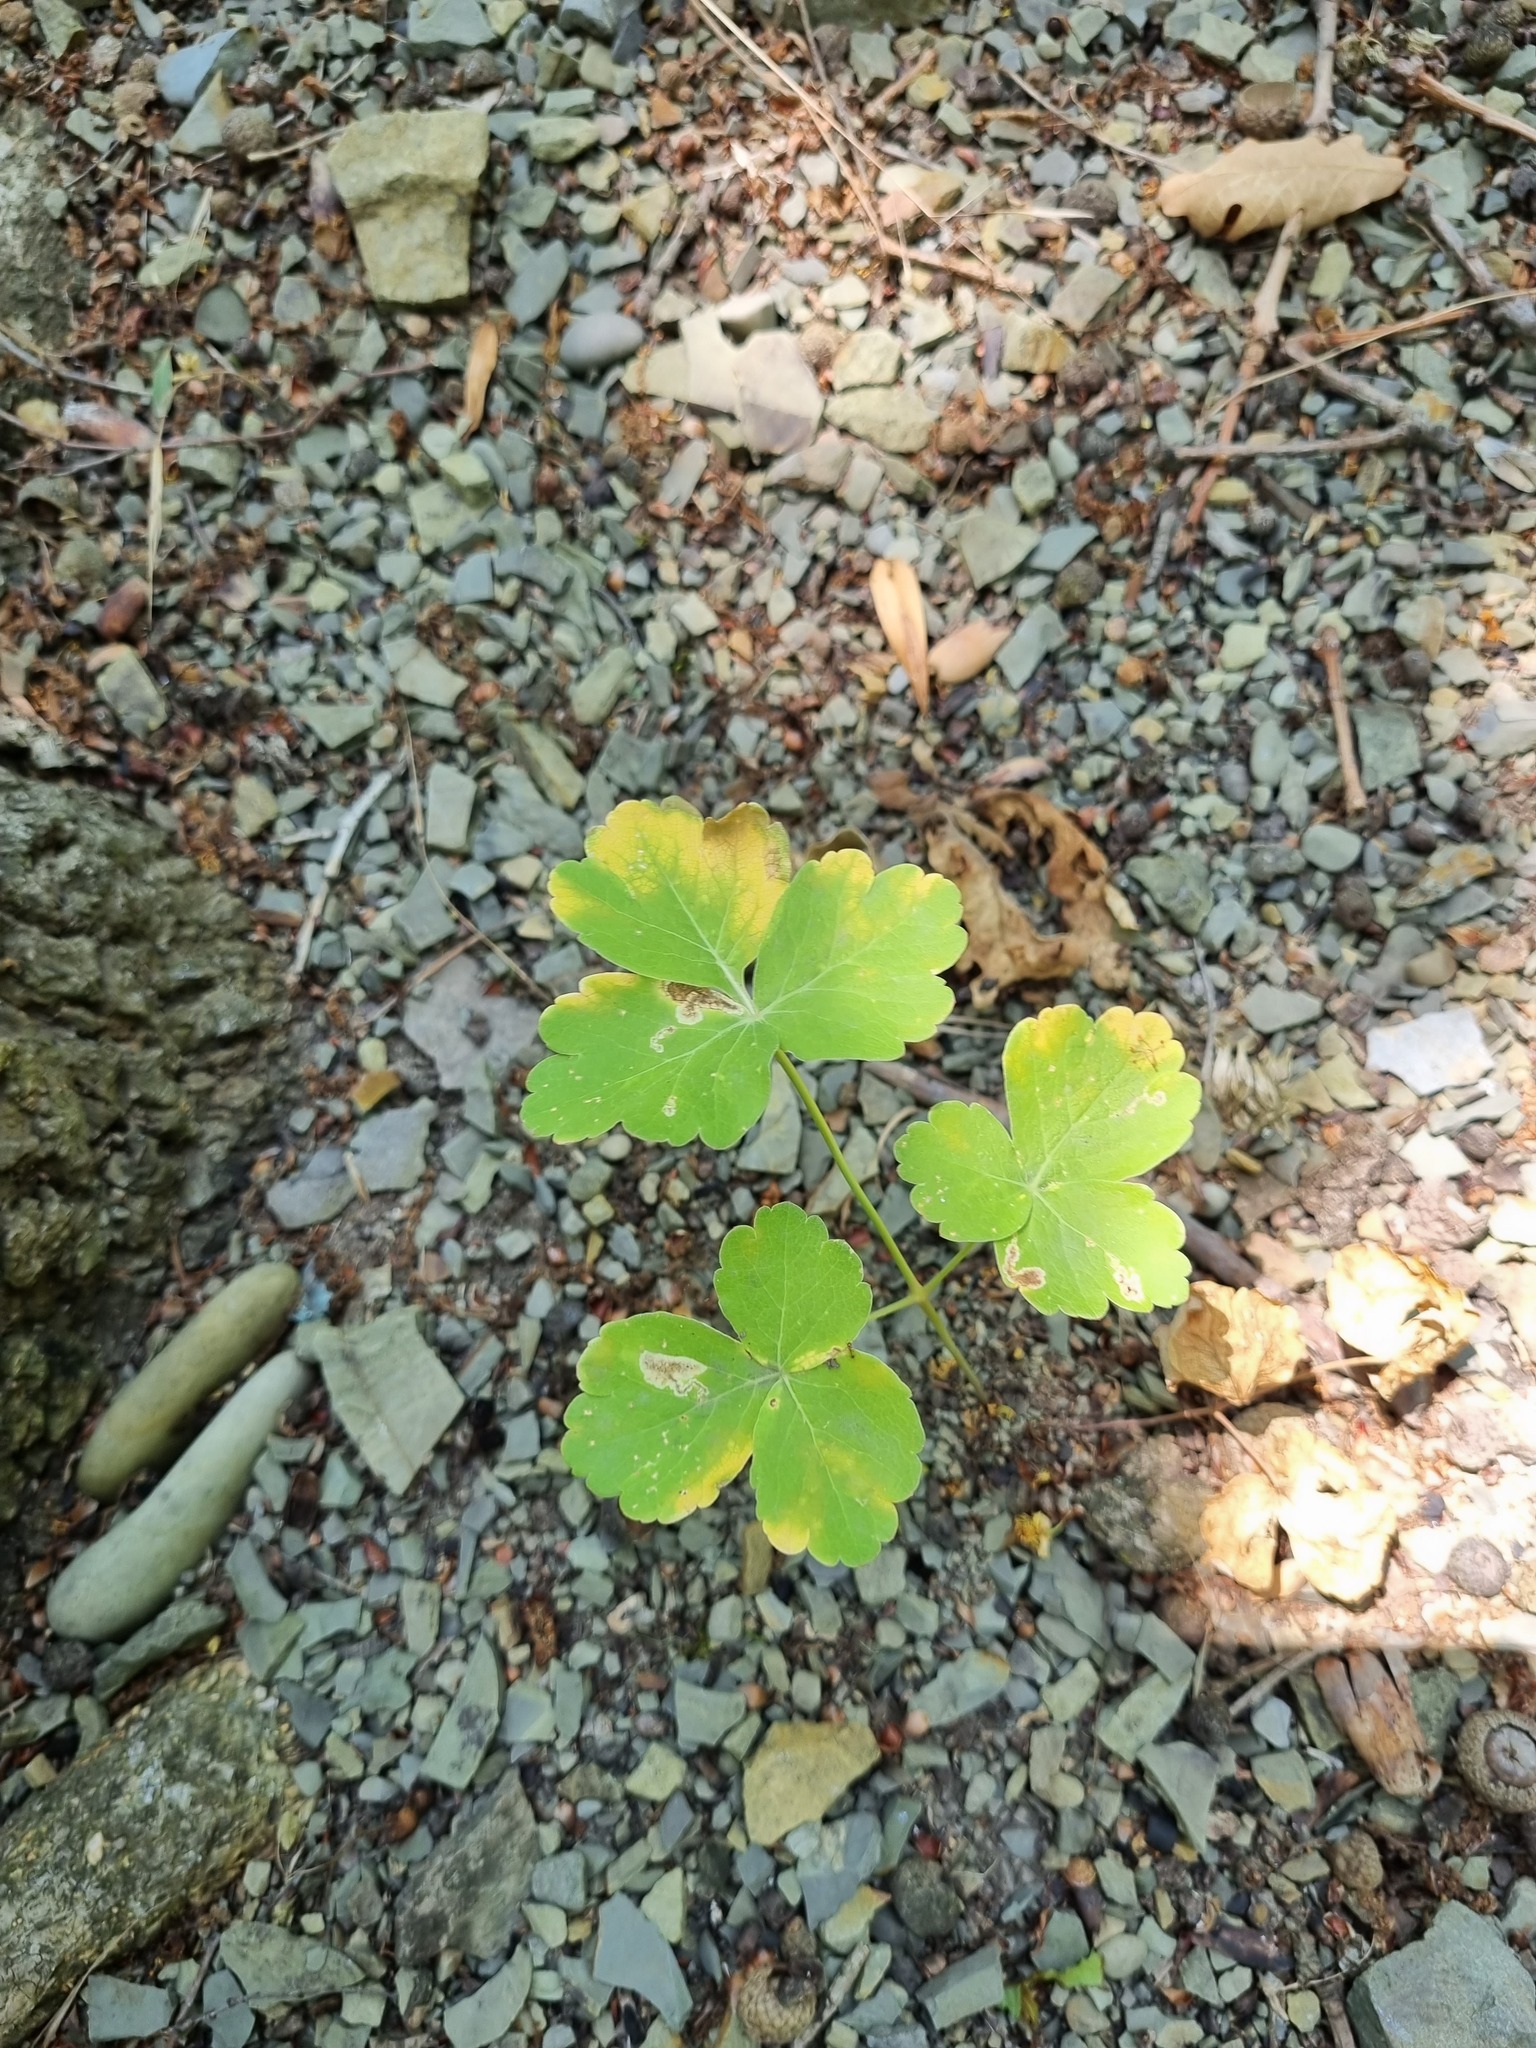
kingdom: Plantae
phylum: Tracheophyta
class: Magnoliopsida
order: Apiales
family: Apiaceae
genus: Laser
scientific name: Laser trilobum
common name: Laser
